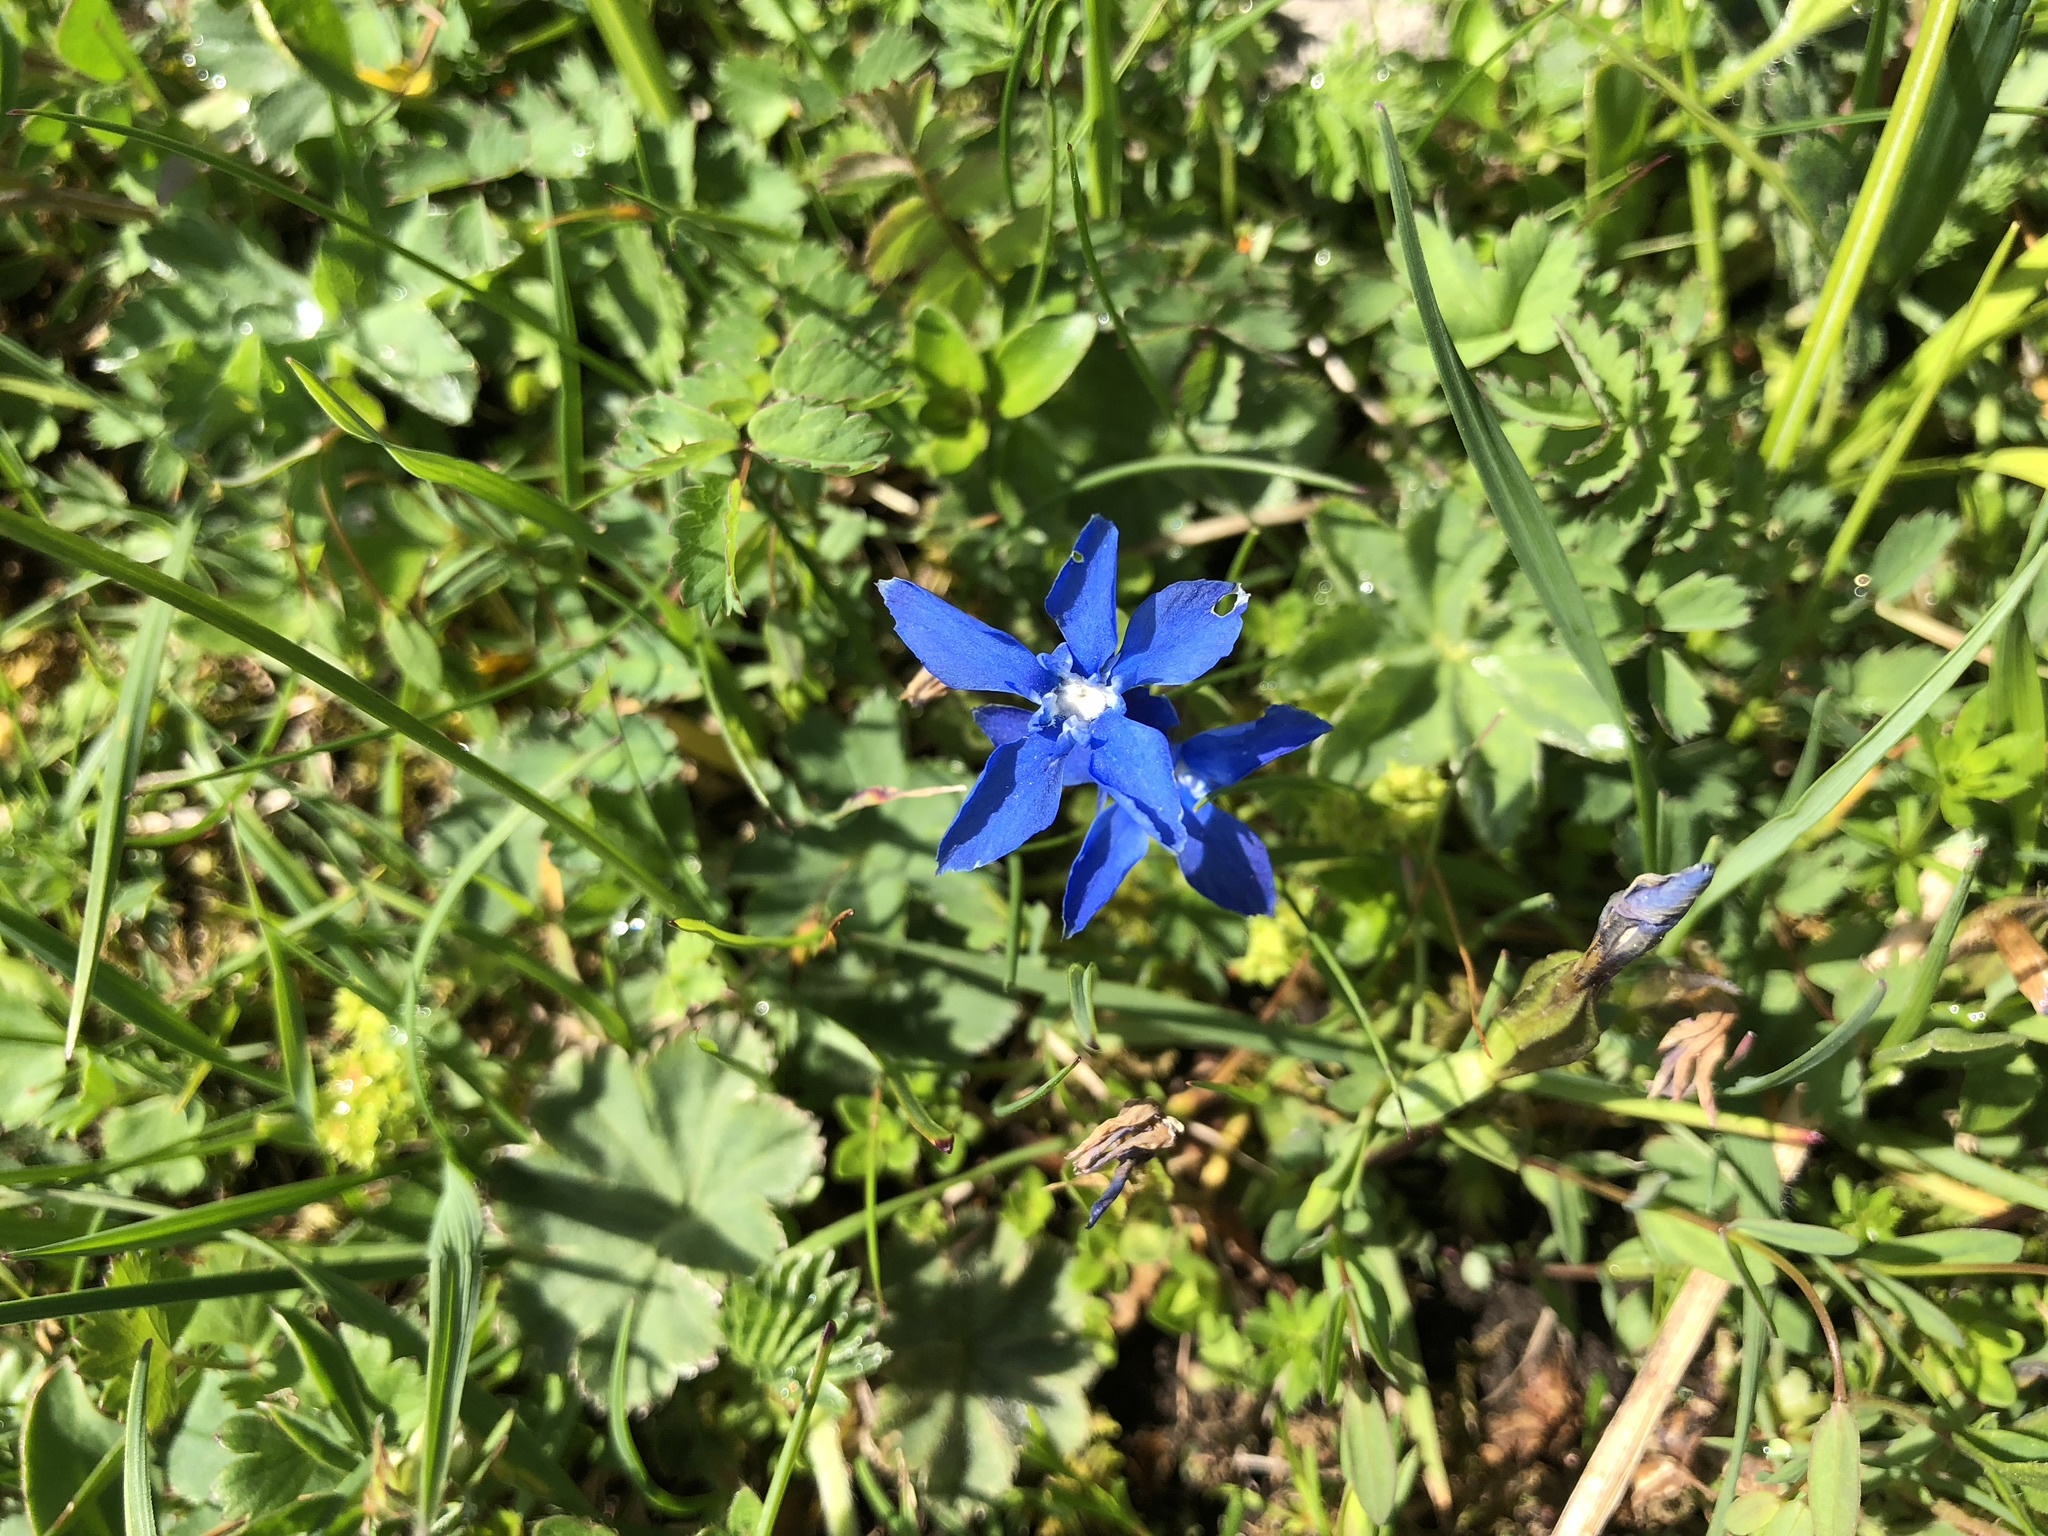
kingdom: Plantae
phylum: Tracheophyta
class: Magnoliopsida
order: Gentianales
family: Gentianaceae
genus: Gentiana
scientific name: Gentiana verna
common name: Spring gentian
